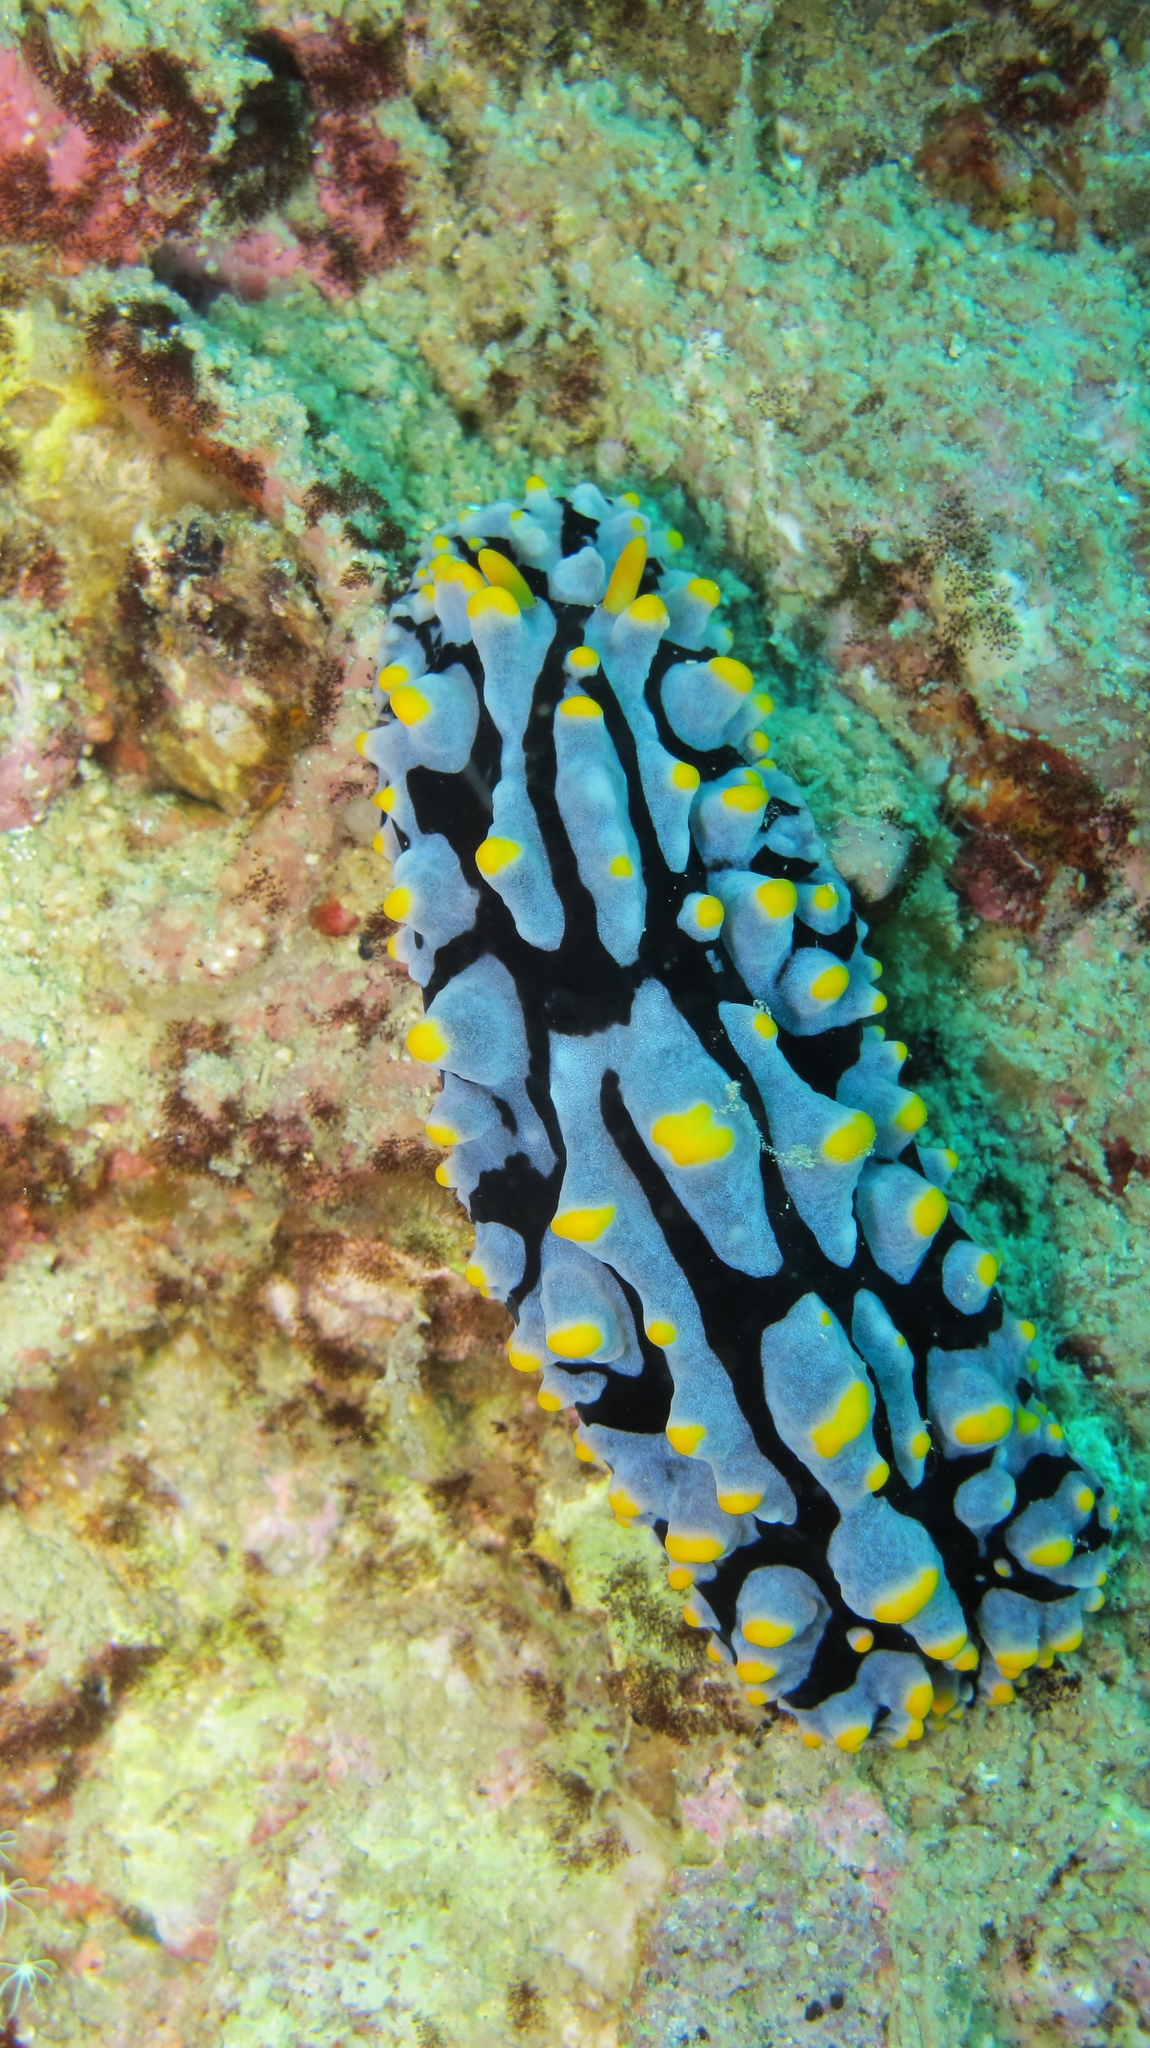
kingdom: Animalia
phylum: Mollusca
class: Gastropoda
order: Nudibranchia
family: Phyllidiidae
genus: Phyllidia
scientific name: Phyllidia varicosa
